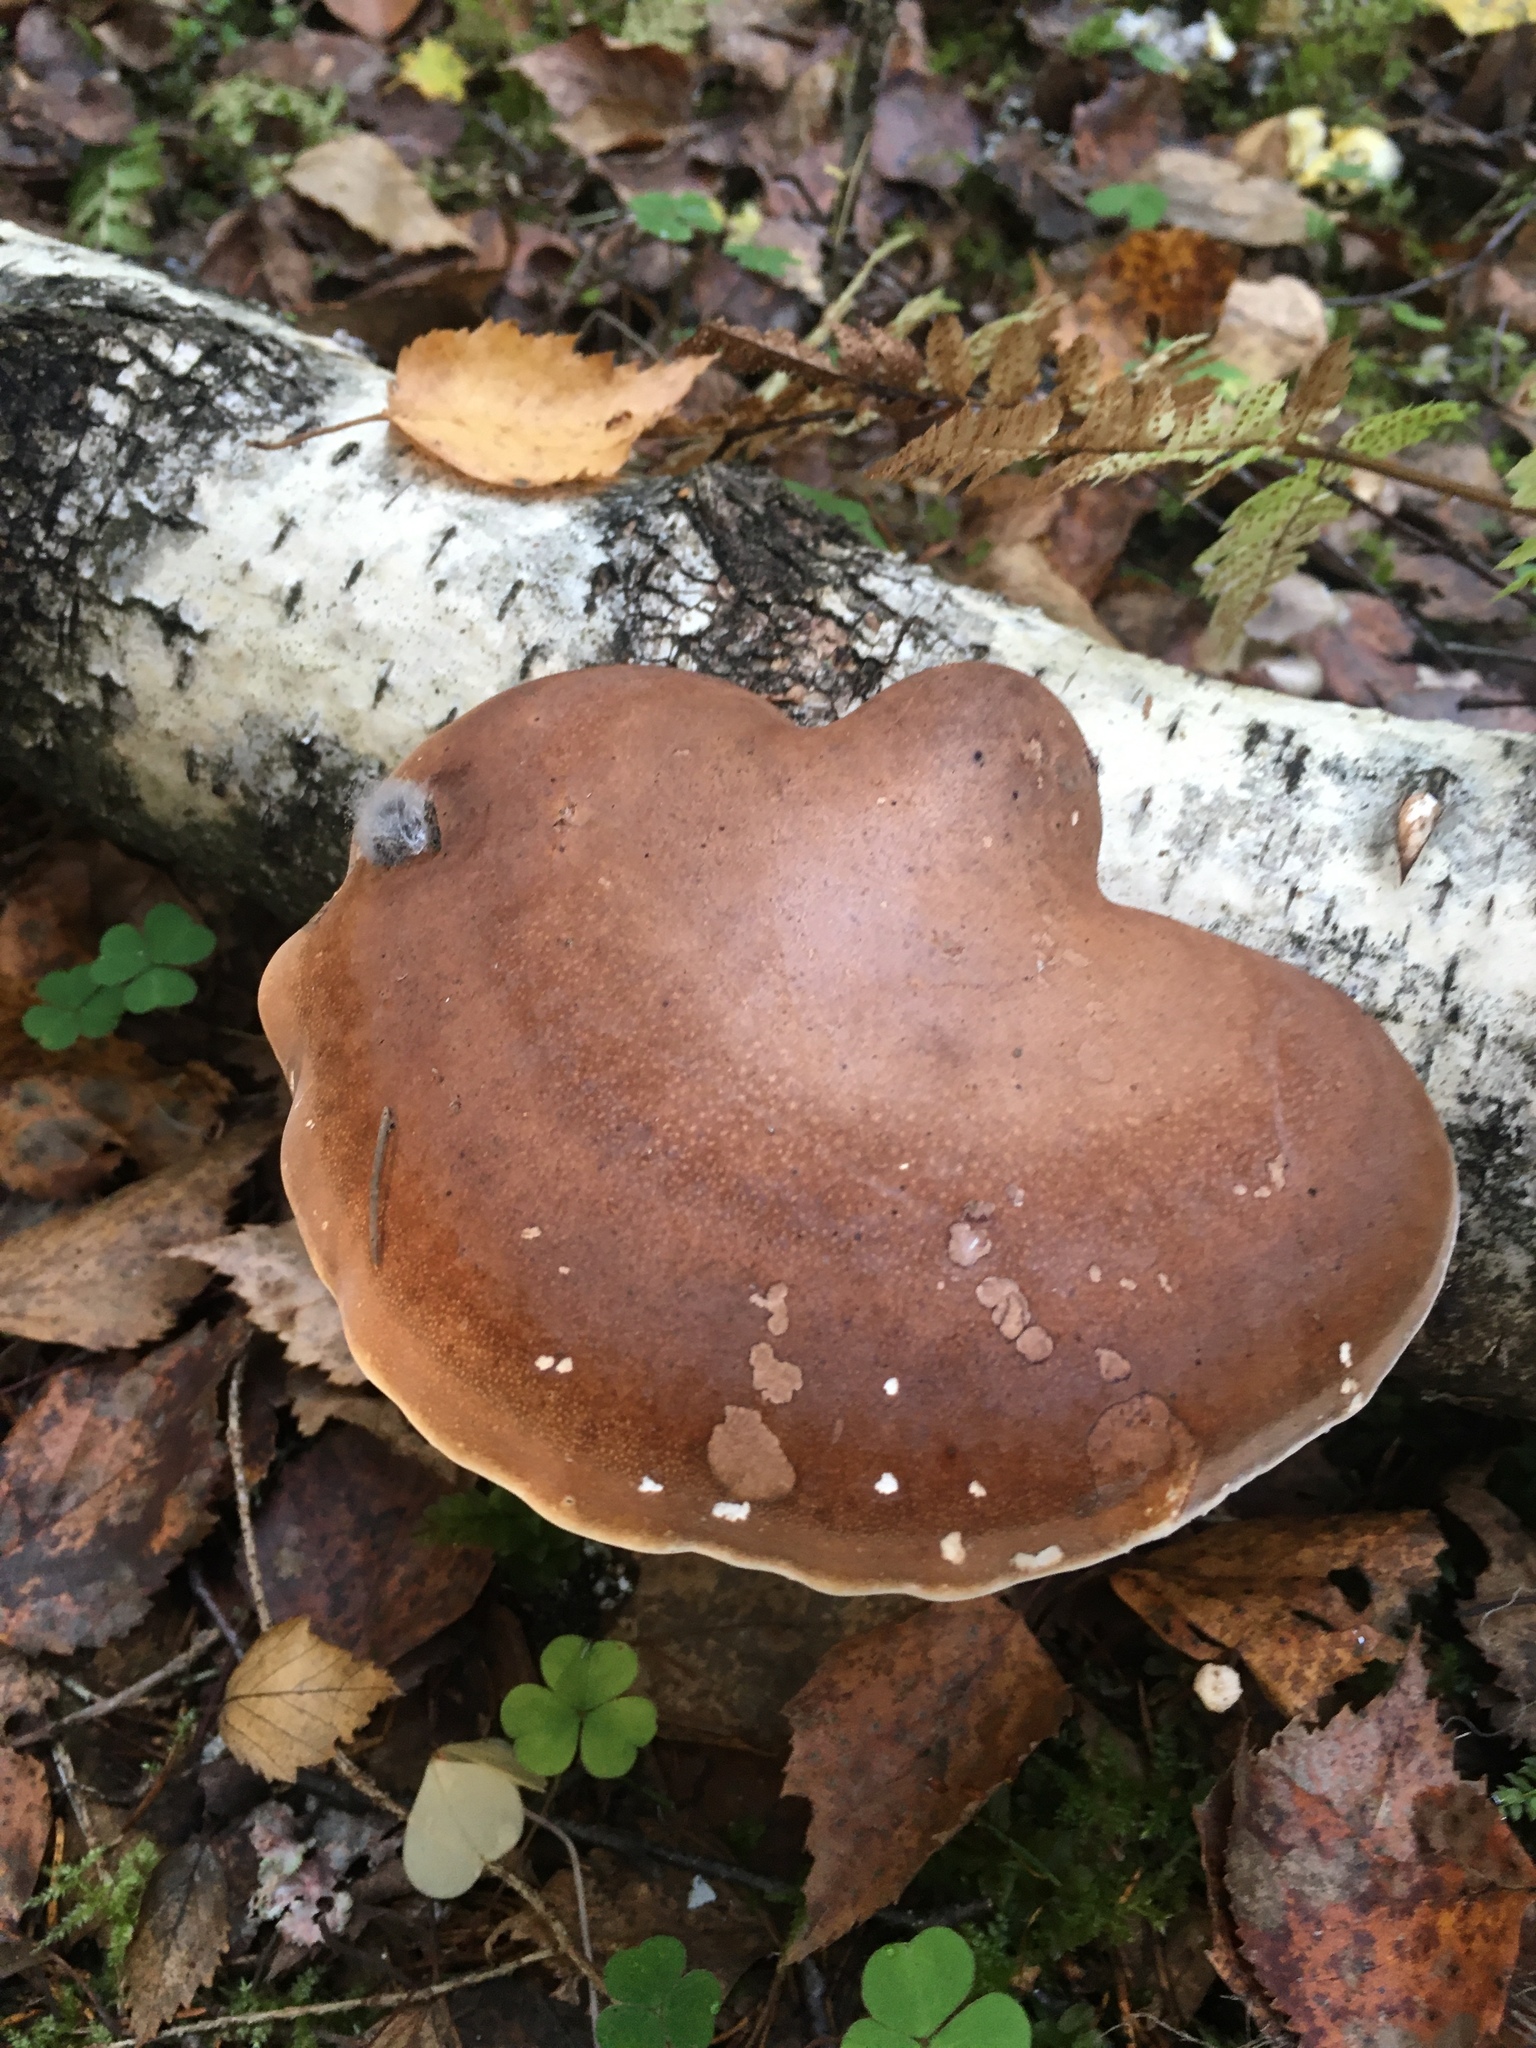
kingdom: Fungi
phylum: Basidiomycota
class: Agaricomycetes
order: Polyporales
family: Fomitopsidaceae
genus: Fomitopsis
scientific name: Fomitopsis betulina
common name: Birch polypore
